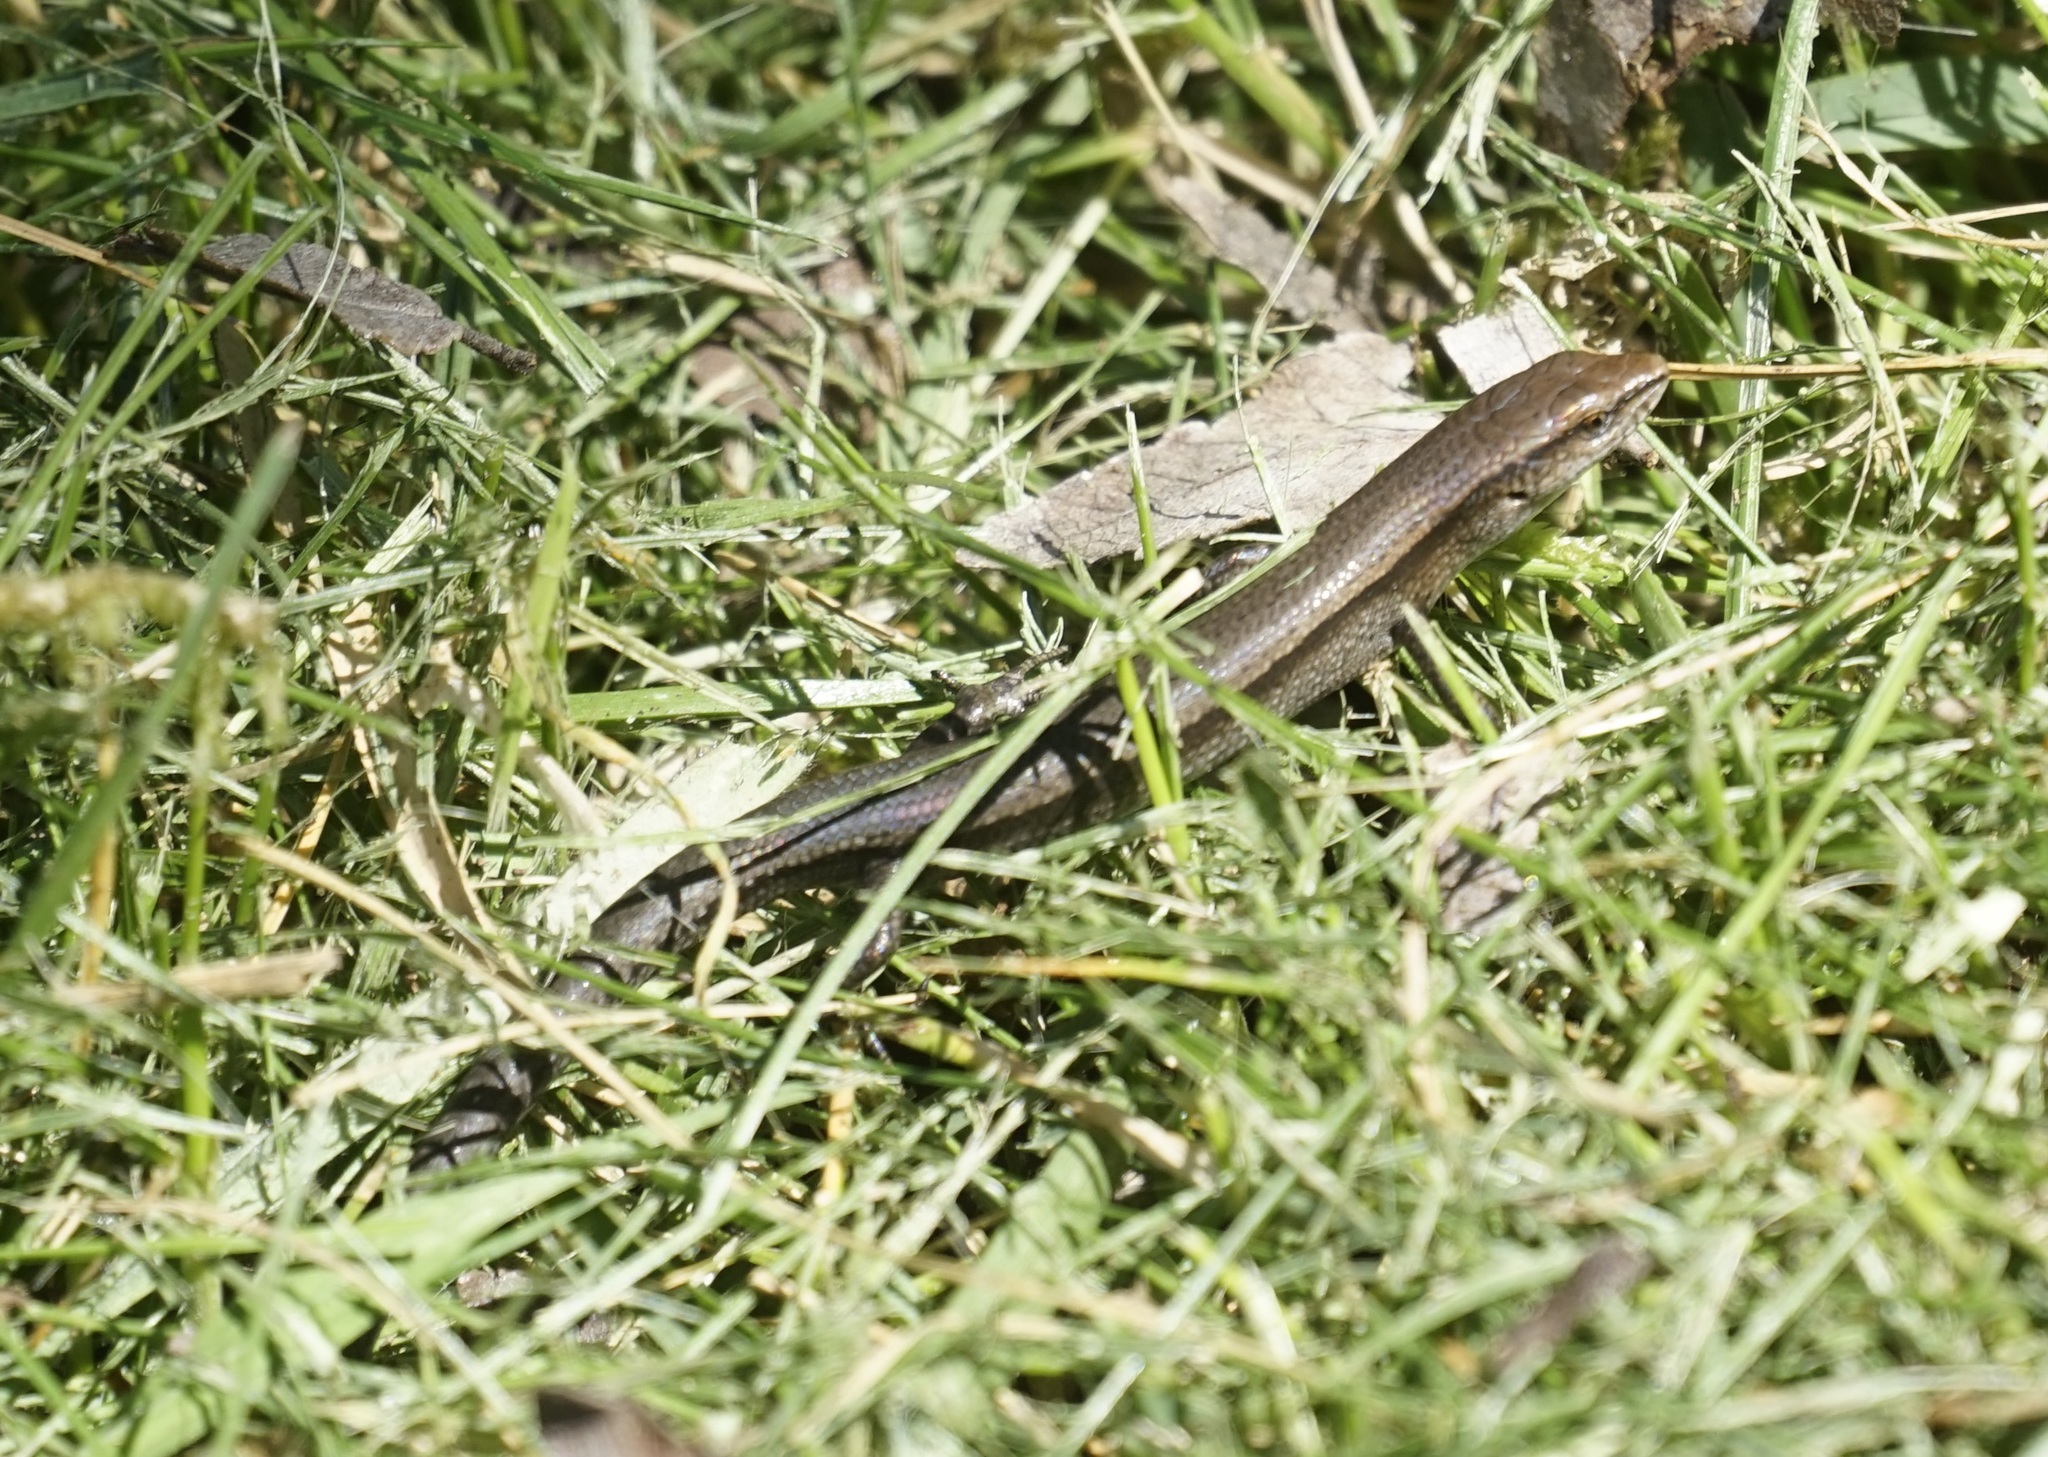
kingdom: Animalia
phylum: Chordata
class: Squamata
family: Scincidae
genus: Lampropholis
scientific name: Lampropholis delicata
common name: Plague skink
